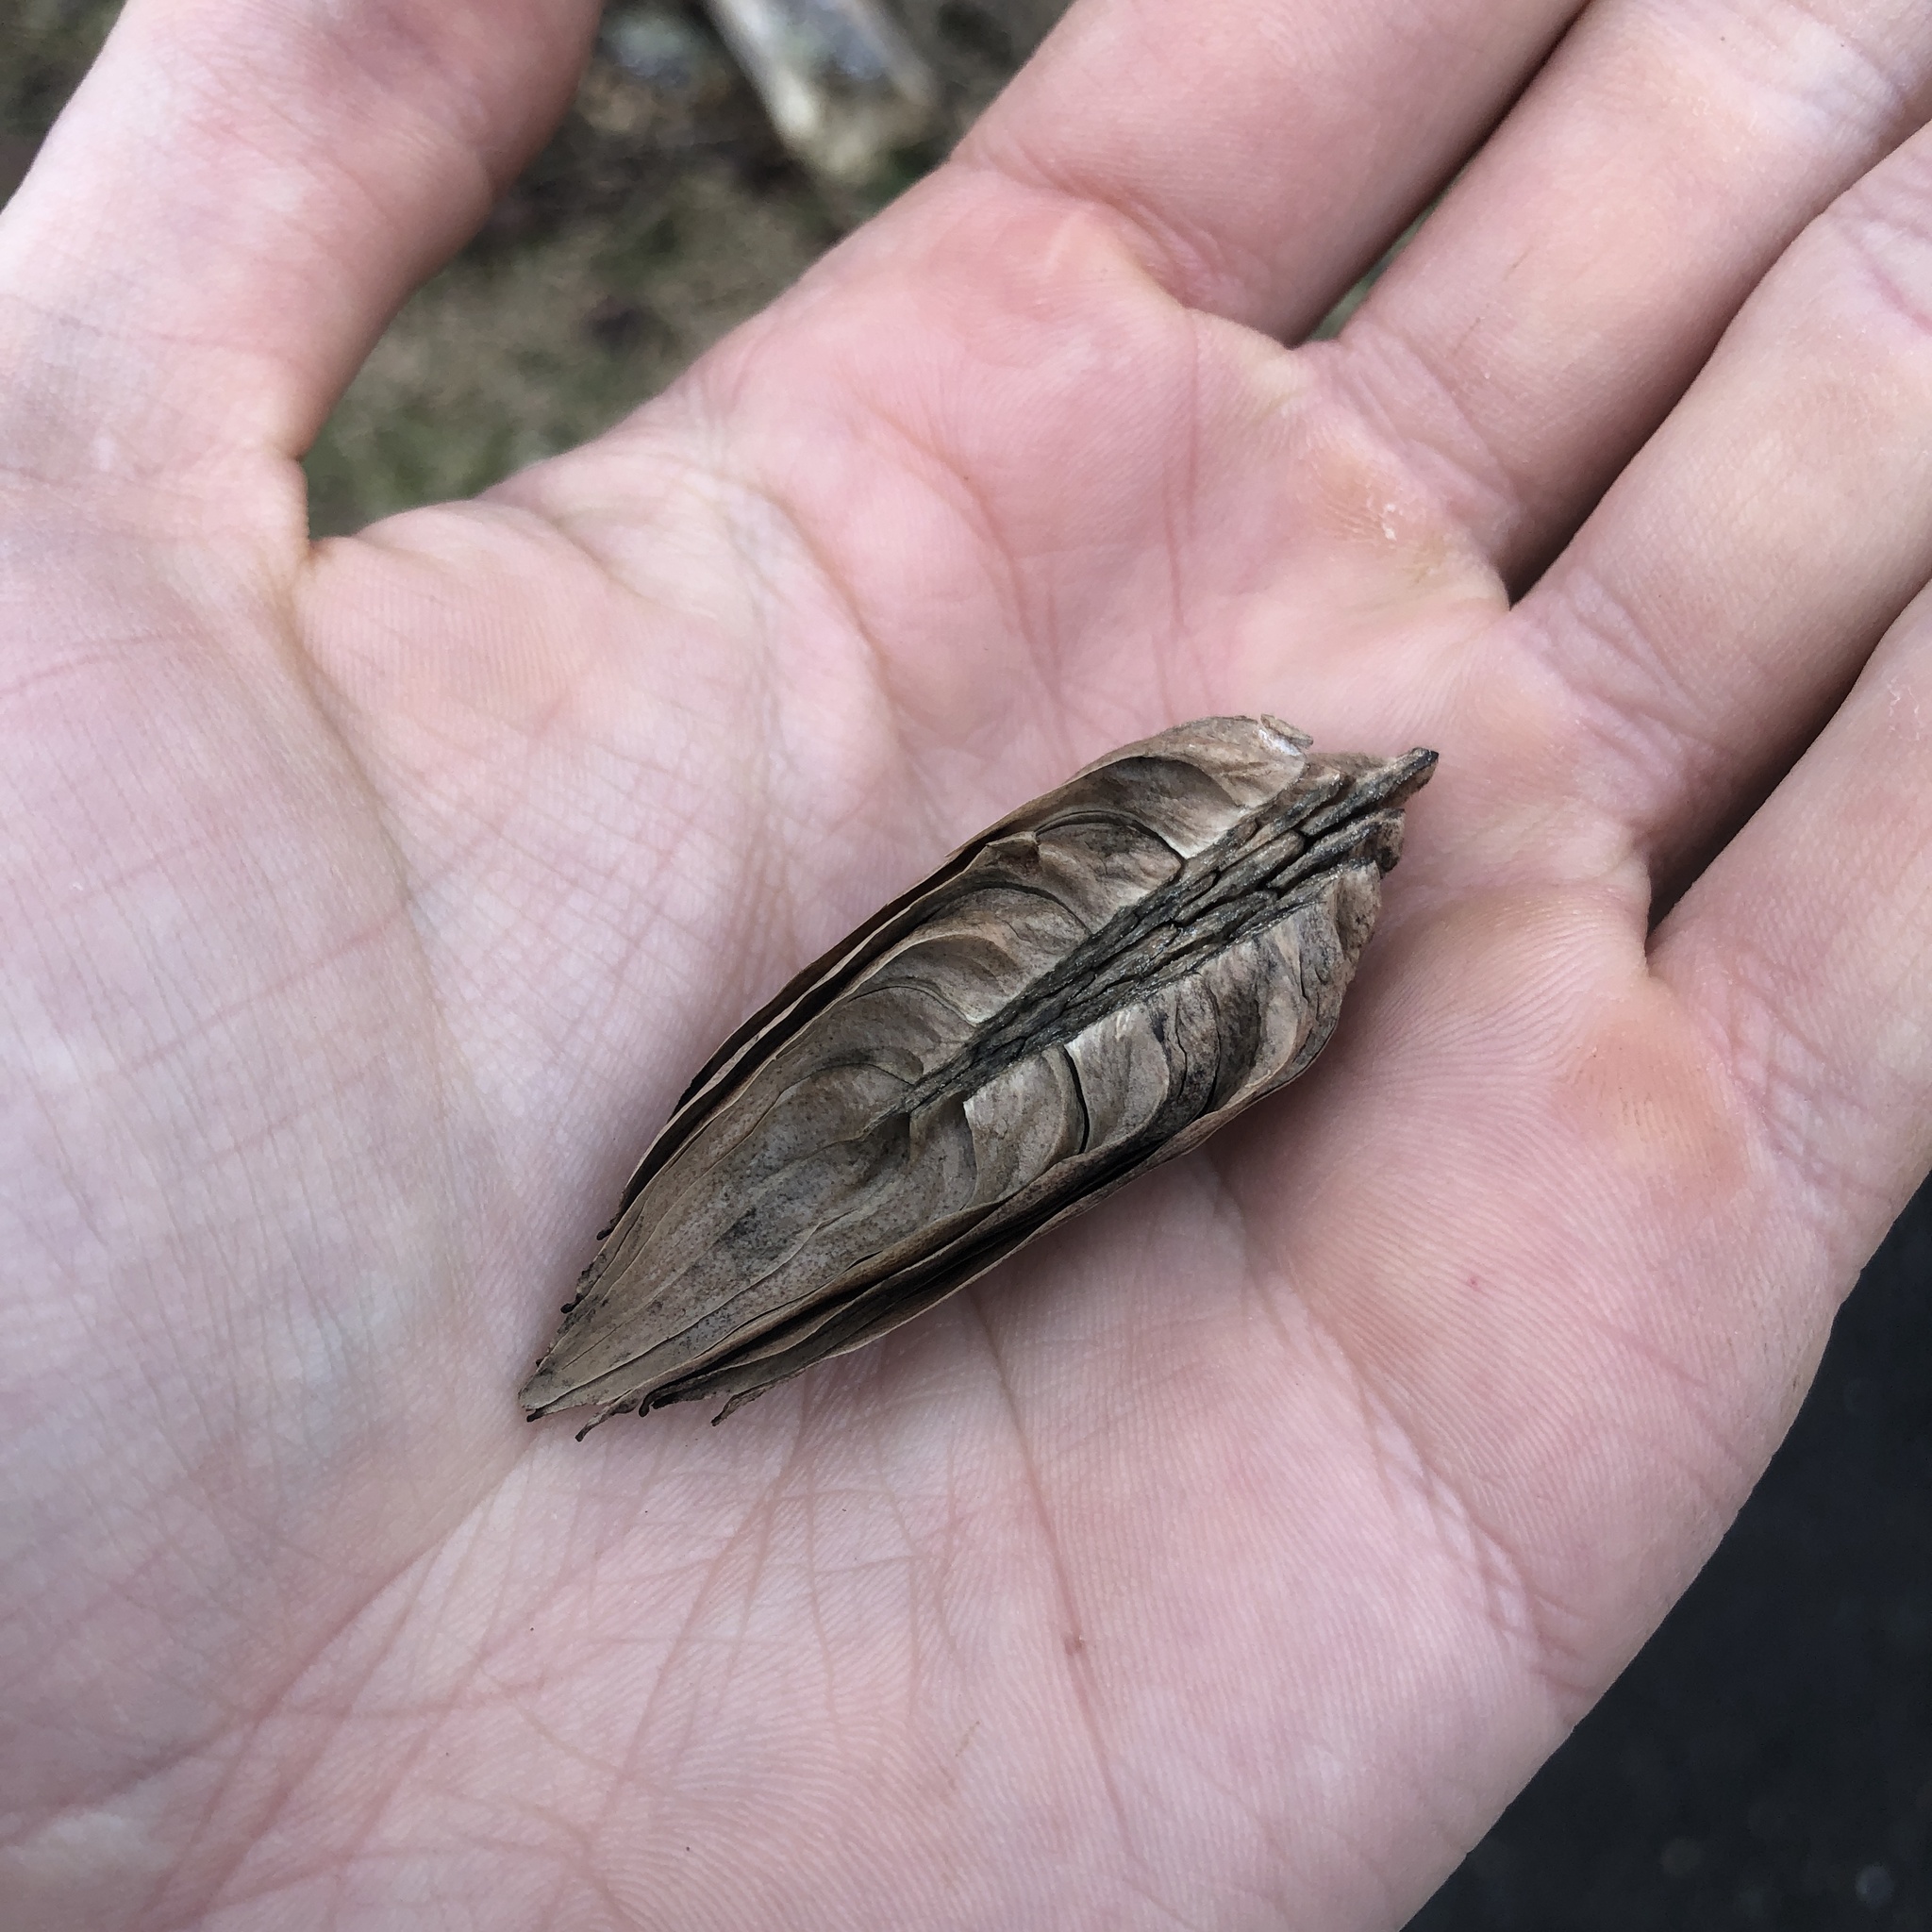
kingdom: Plantae
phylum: Tracheophyta
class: Magnoliopsida
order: Magnoliales
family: Magnoliaceae
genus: Liriodendron
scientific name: Liriodendron tulipifera
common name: Tulip tree
